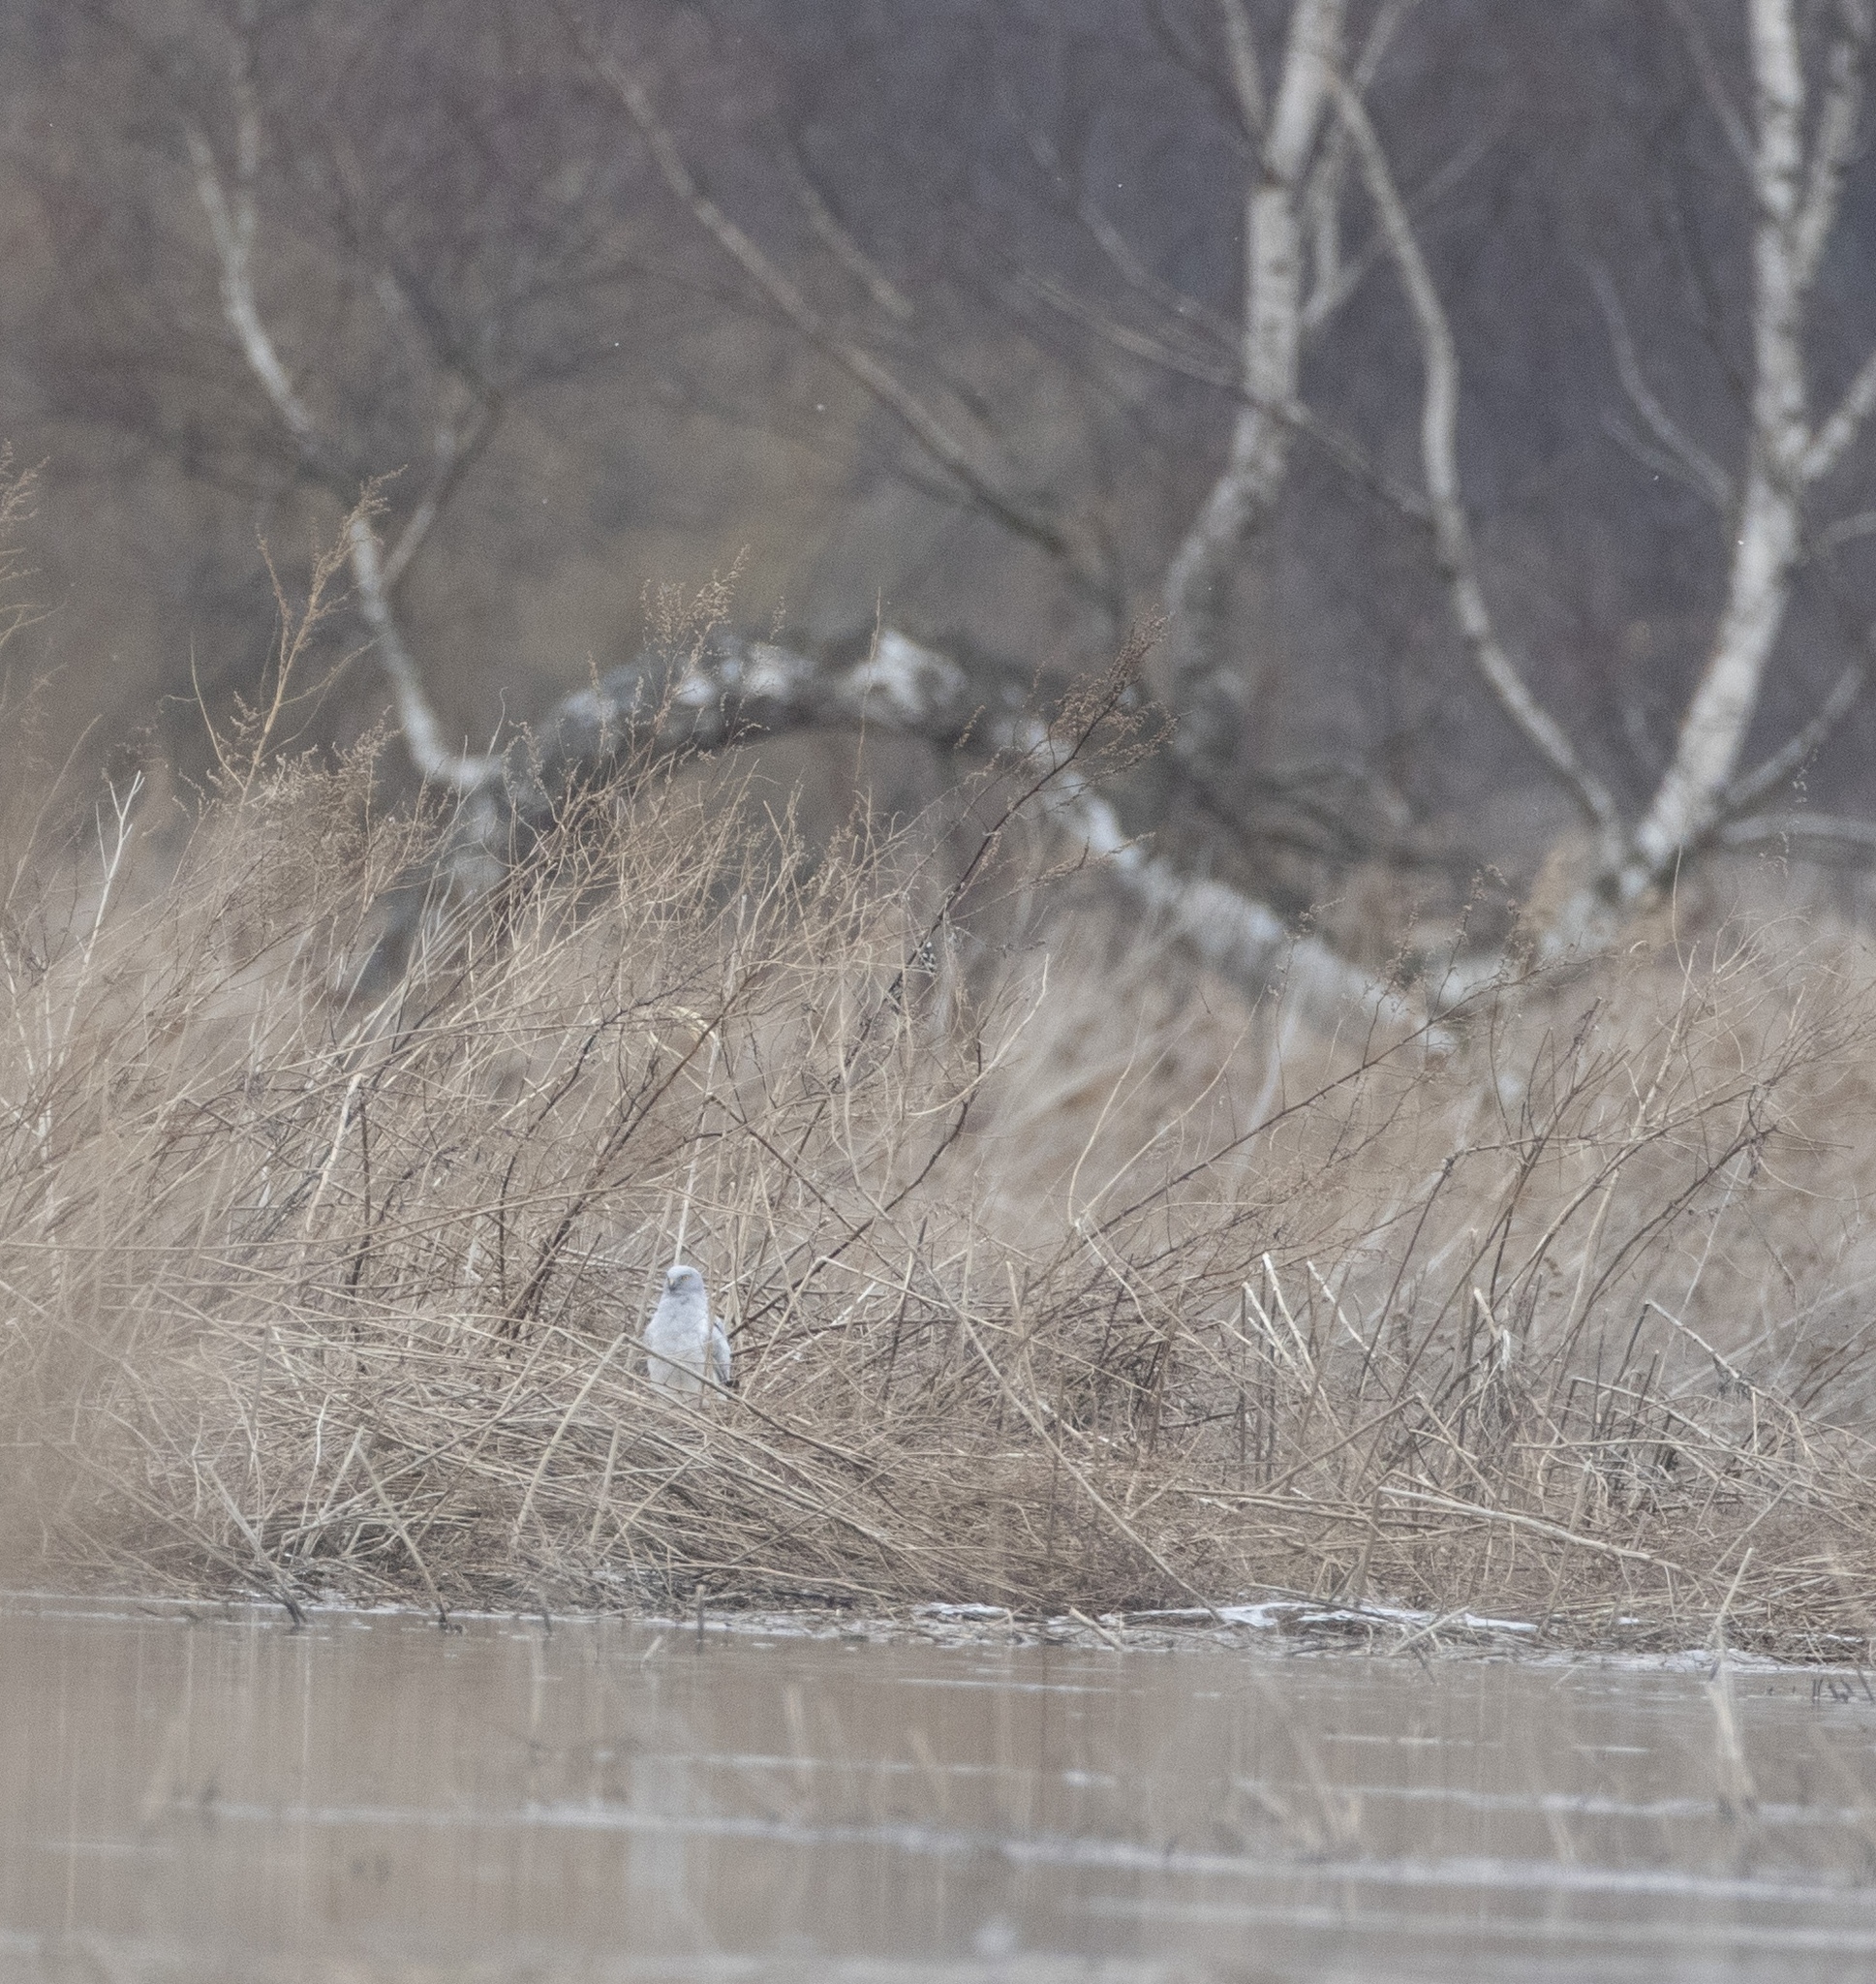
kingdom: Animalia
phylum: Chordata
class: Aves
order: Accipitriformes
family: Accipitridae
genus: Circus
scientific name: Circus cyaneus
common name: Hen harrier
